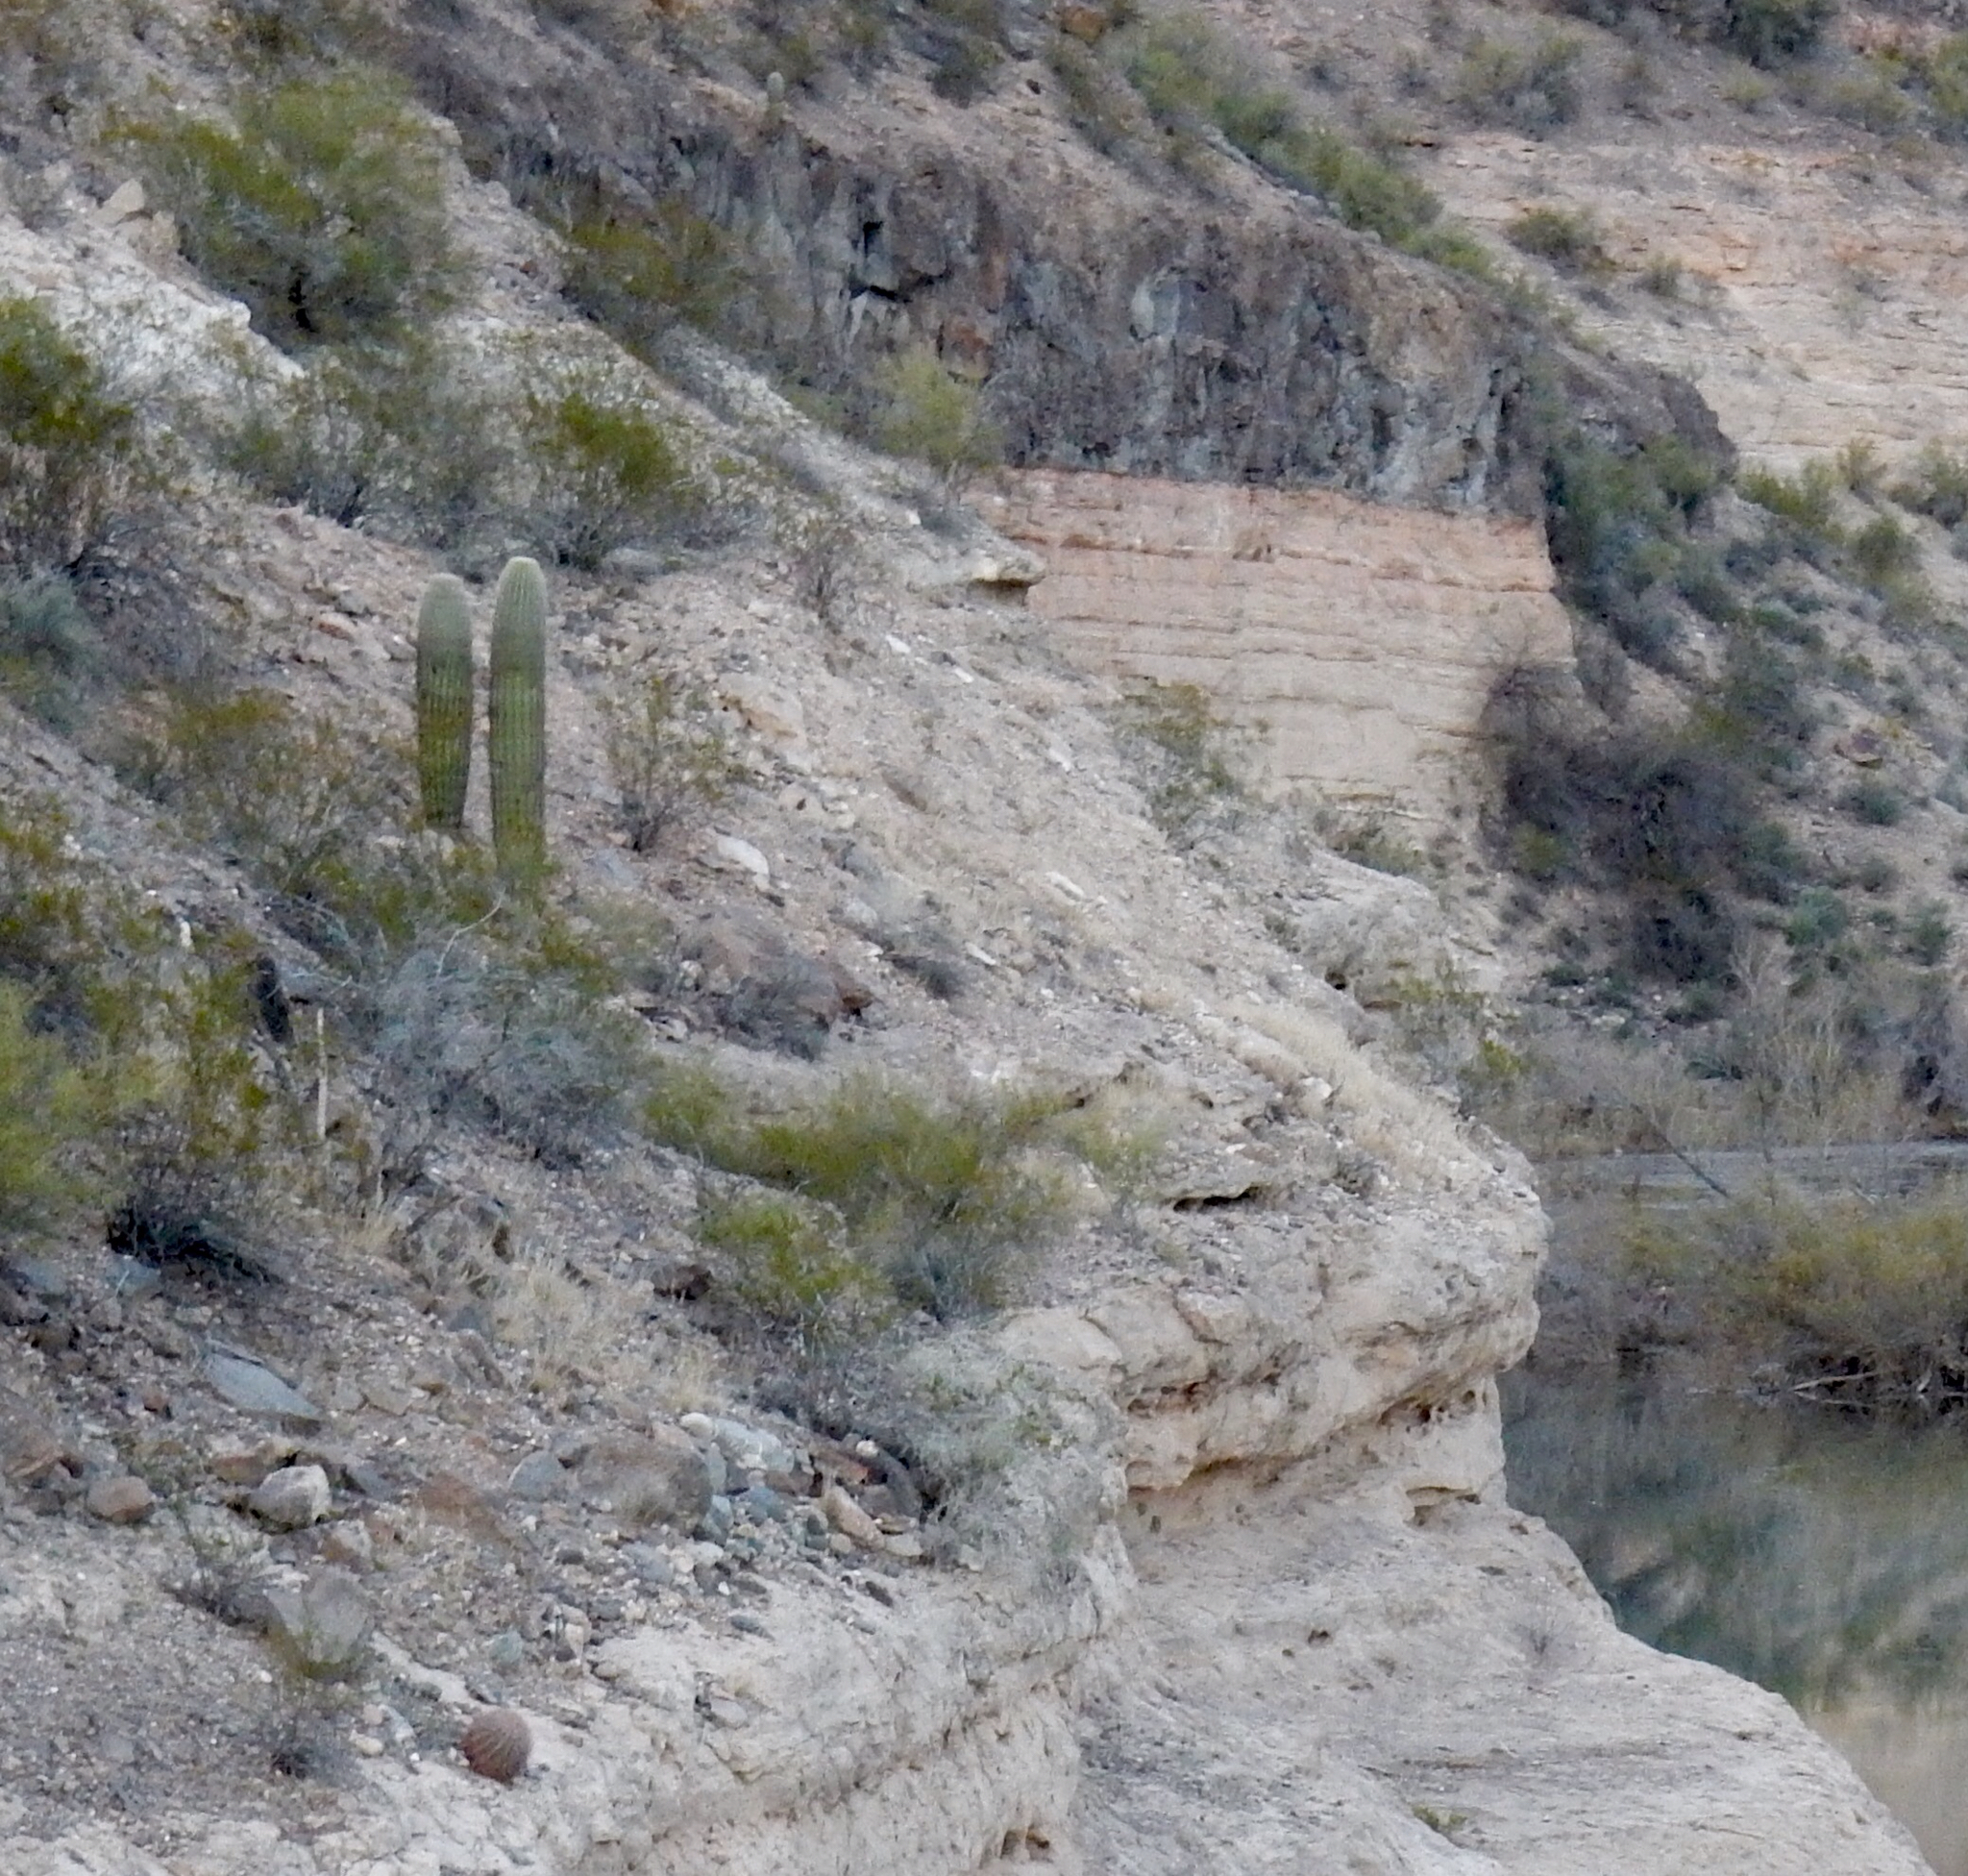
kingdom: Plantae
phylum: Tracheophyta
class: Magnoliopsida
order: Caryophyllales
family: Cactaceae
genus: Carnegiea
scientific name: Carnegiea gigantea
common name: Saguaro
